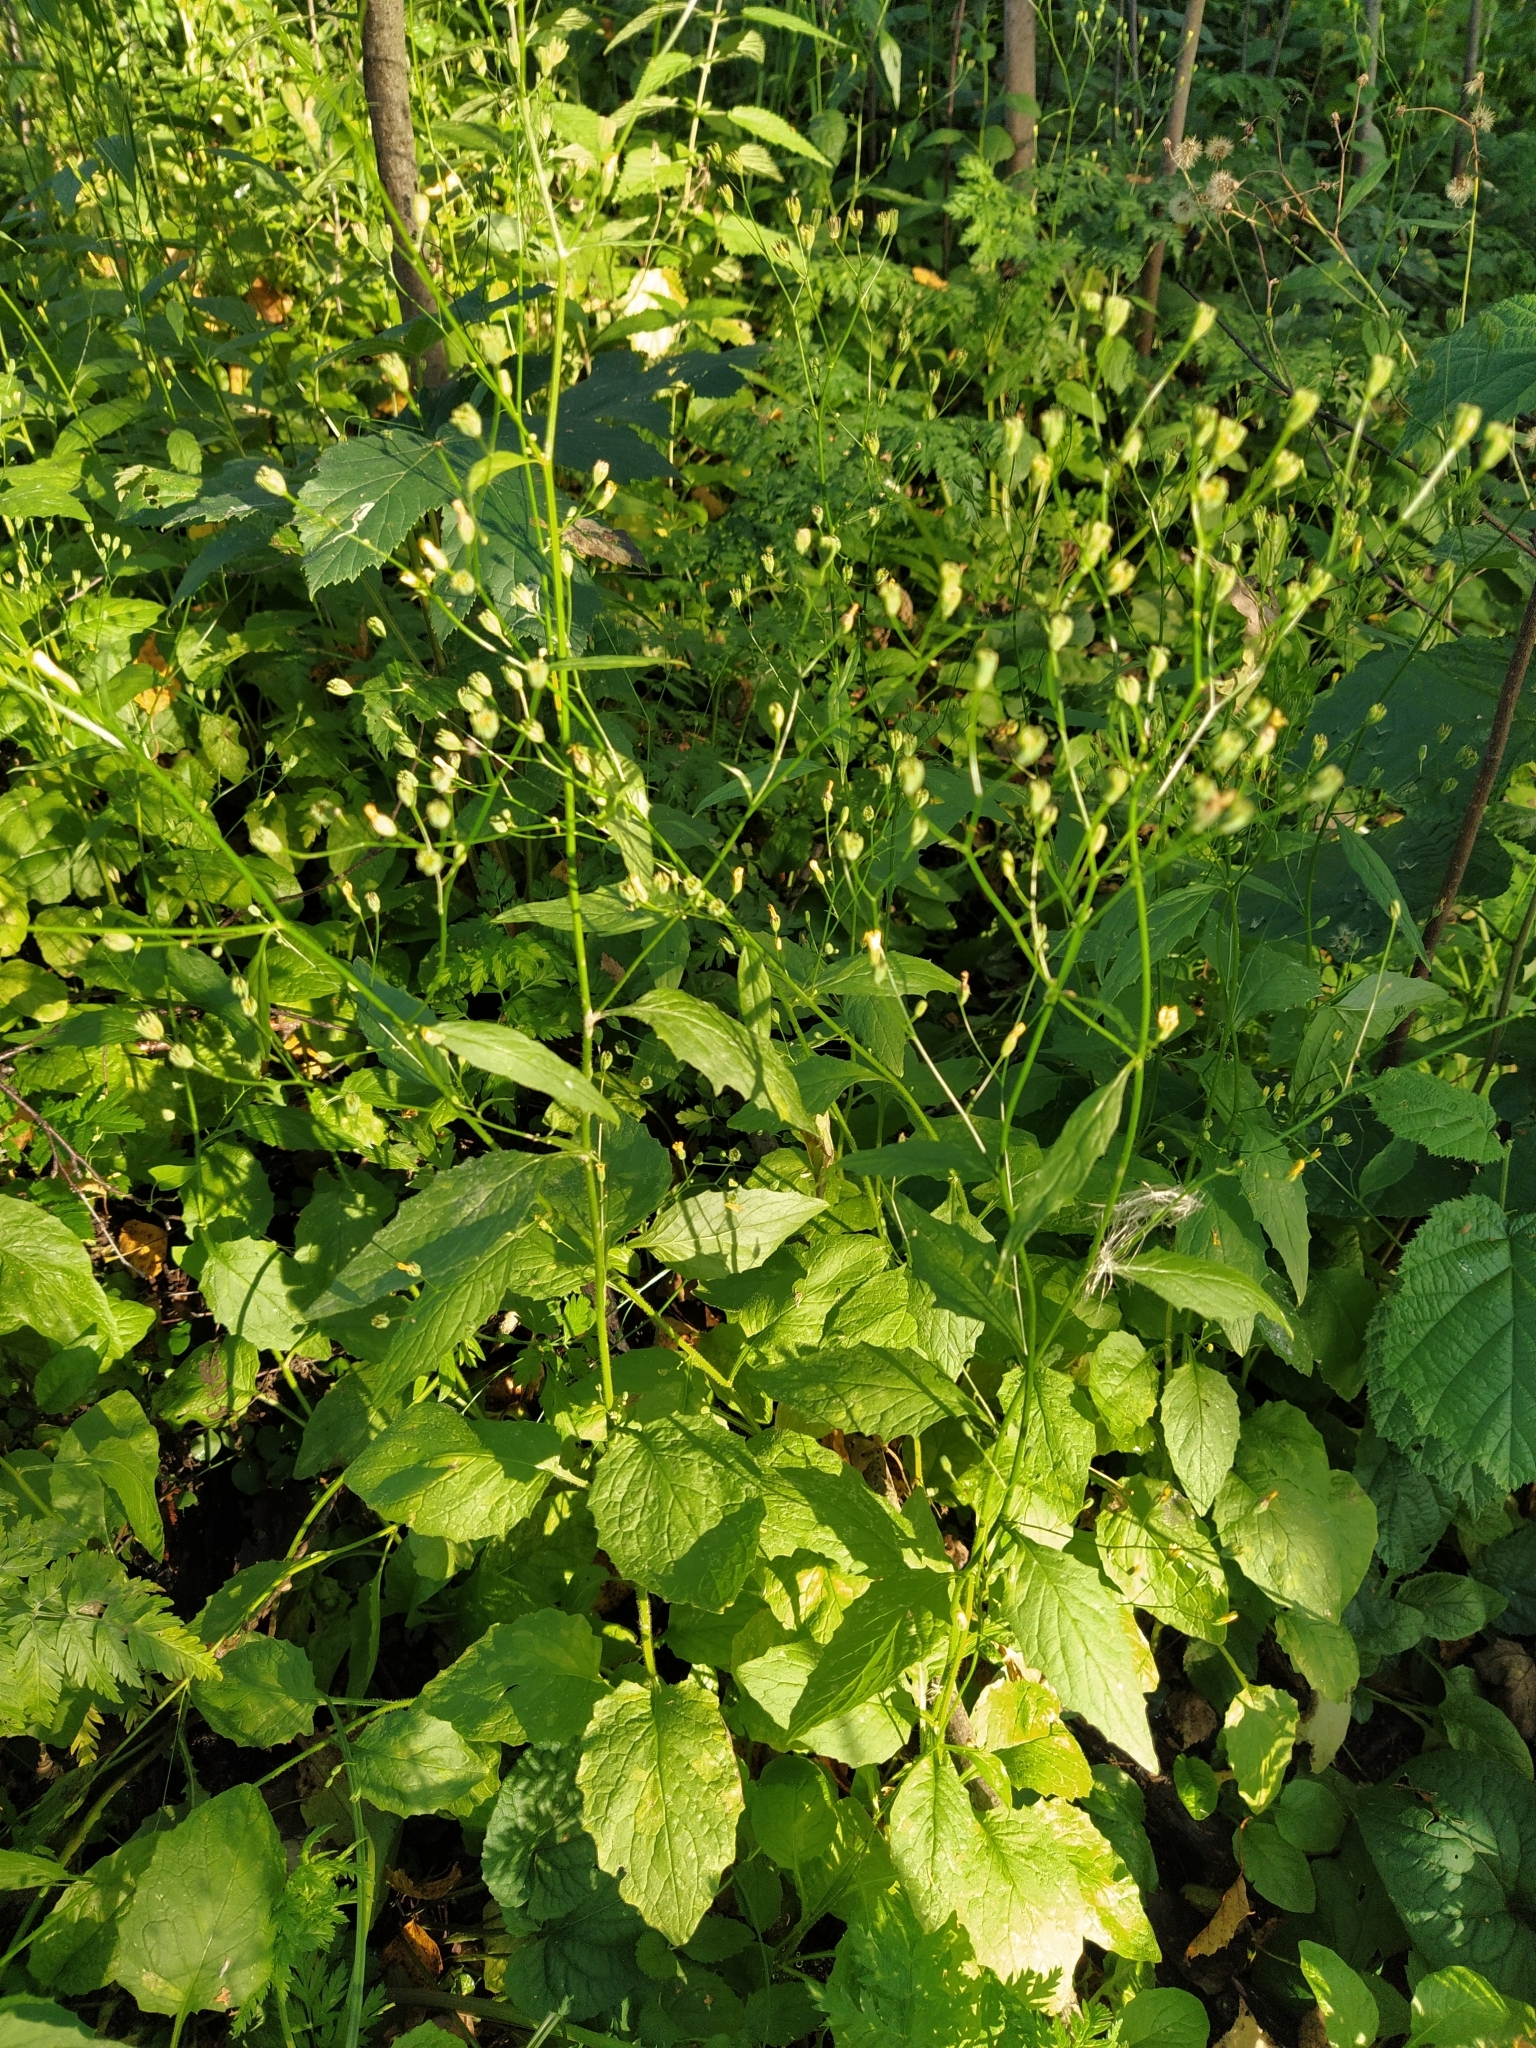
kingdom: Plantae
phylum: Tracheophyta
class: Magnoliopsida
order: Asterales
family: Asteraceae
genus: Lapsana
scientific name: Lapsana communis
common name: Nipplewort
